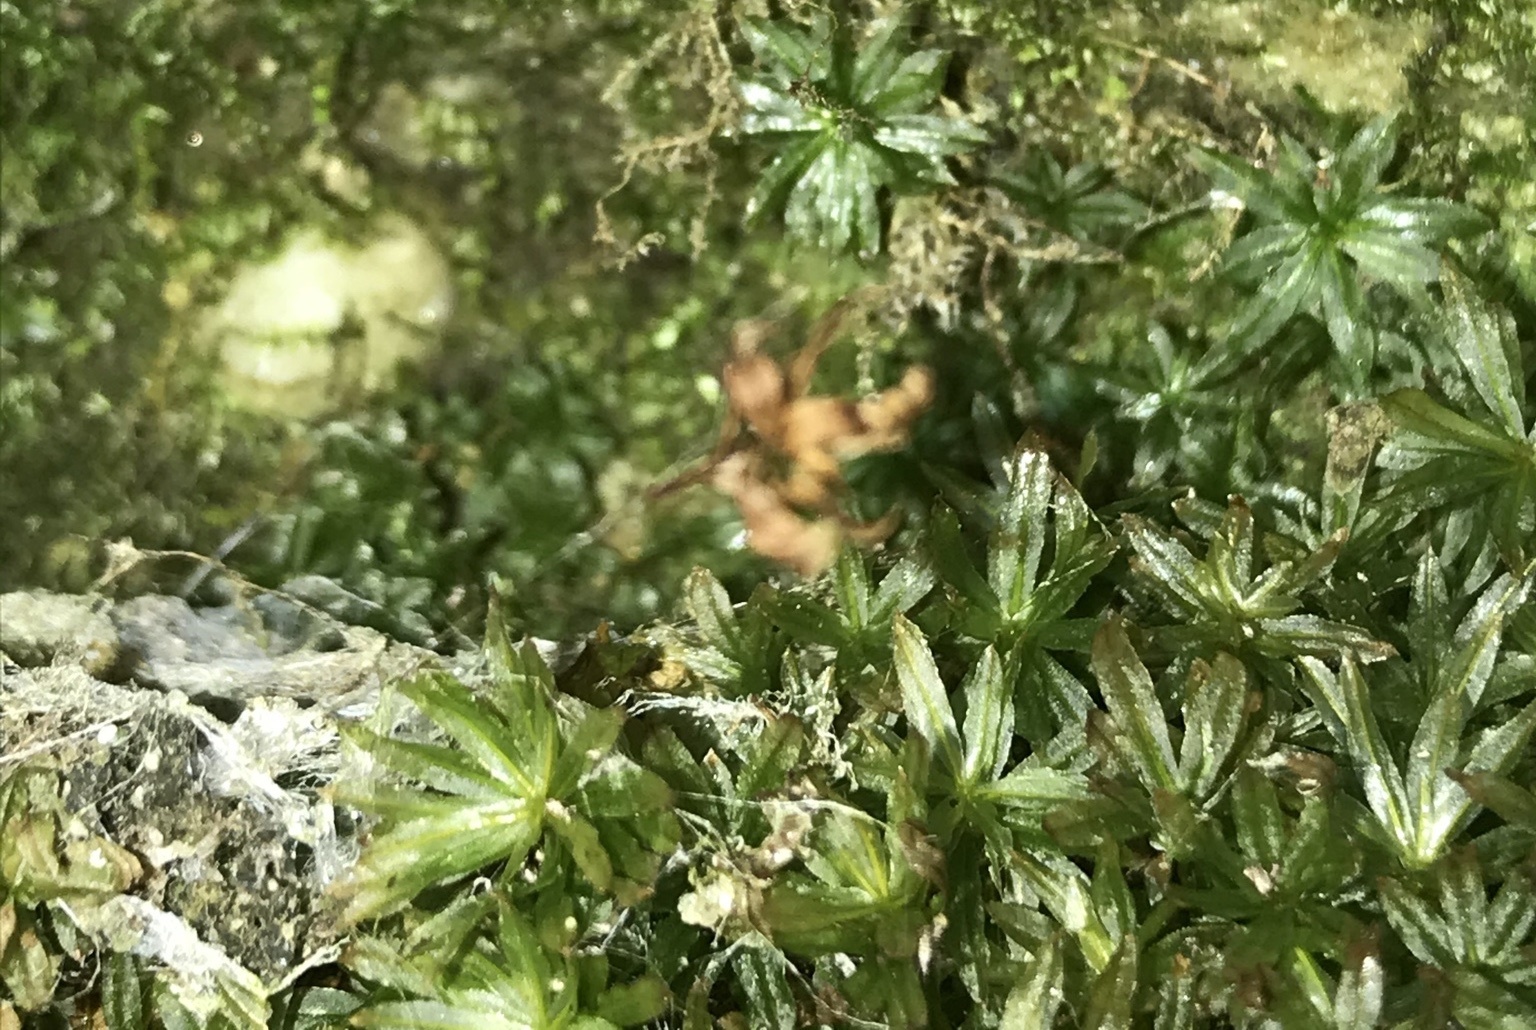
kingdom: Plantae
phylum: Bryophyta
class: Polytrichopsida
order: Polytrichales
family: Polytrichaceae
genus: Atrichum
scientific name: Atrichum undulatum
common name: Common smoothcap
